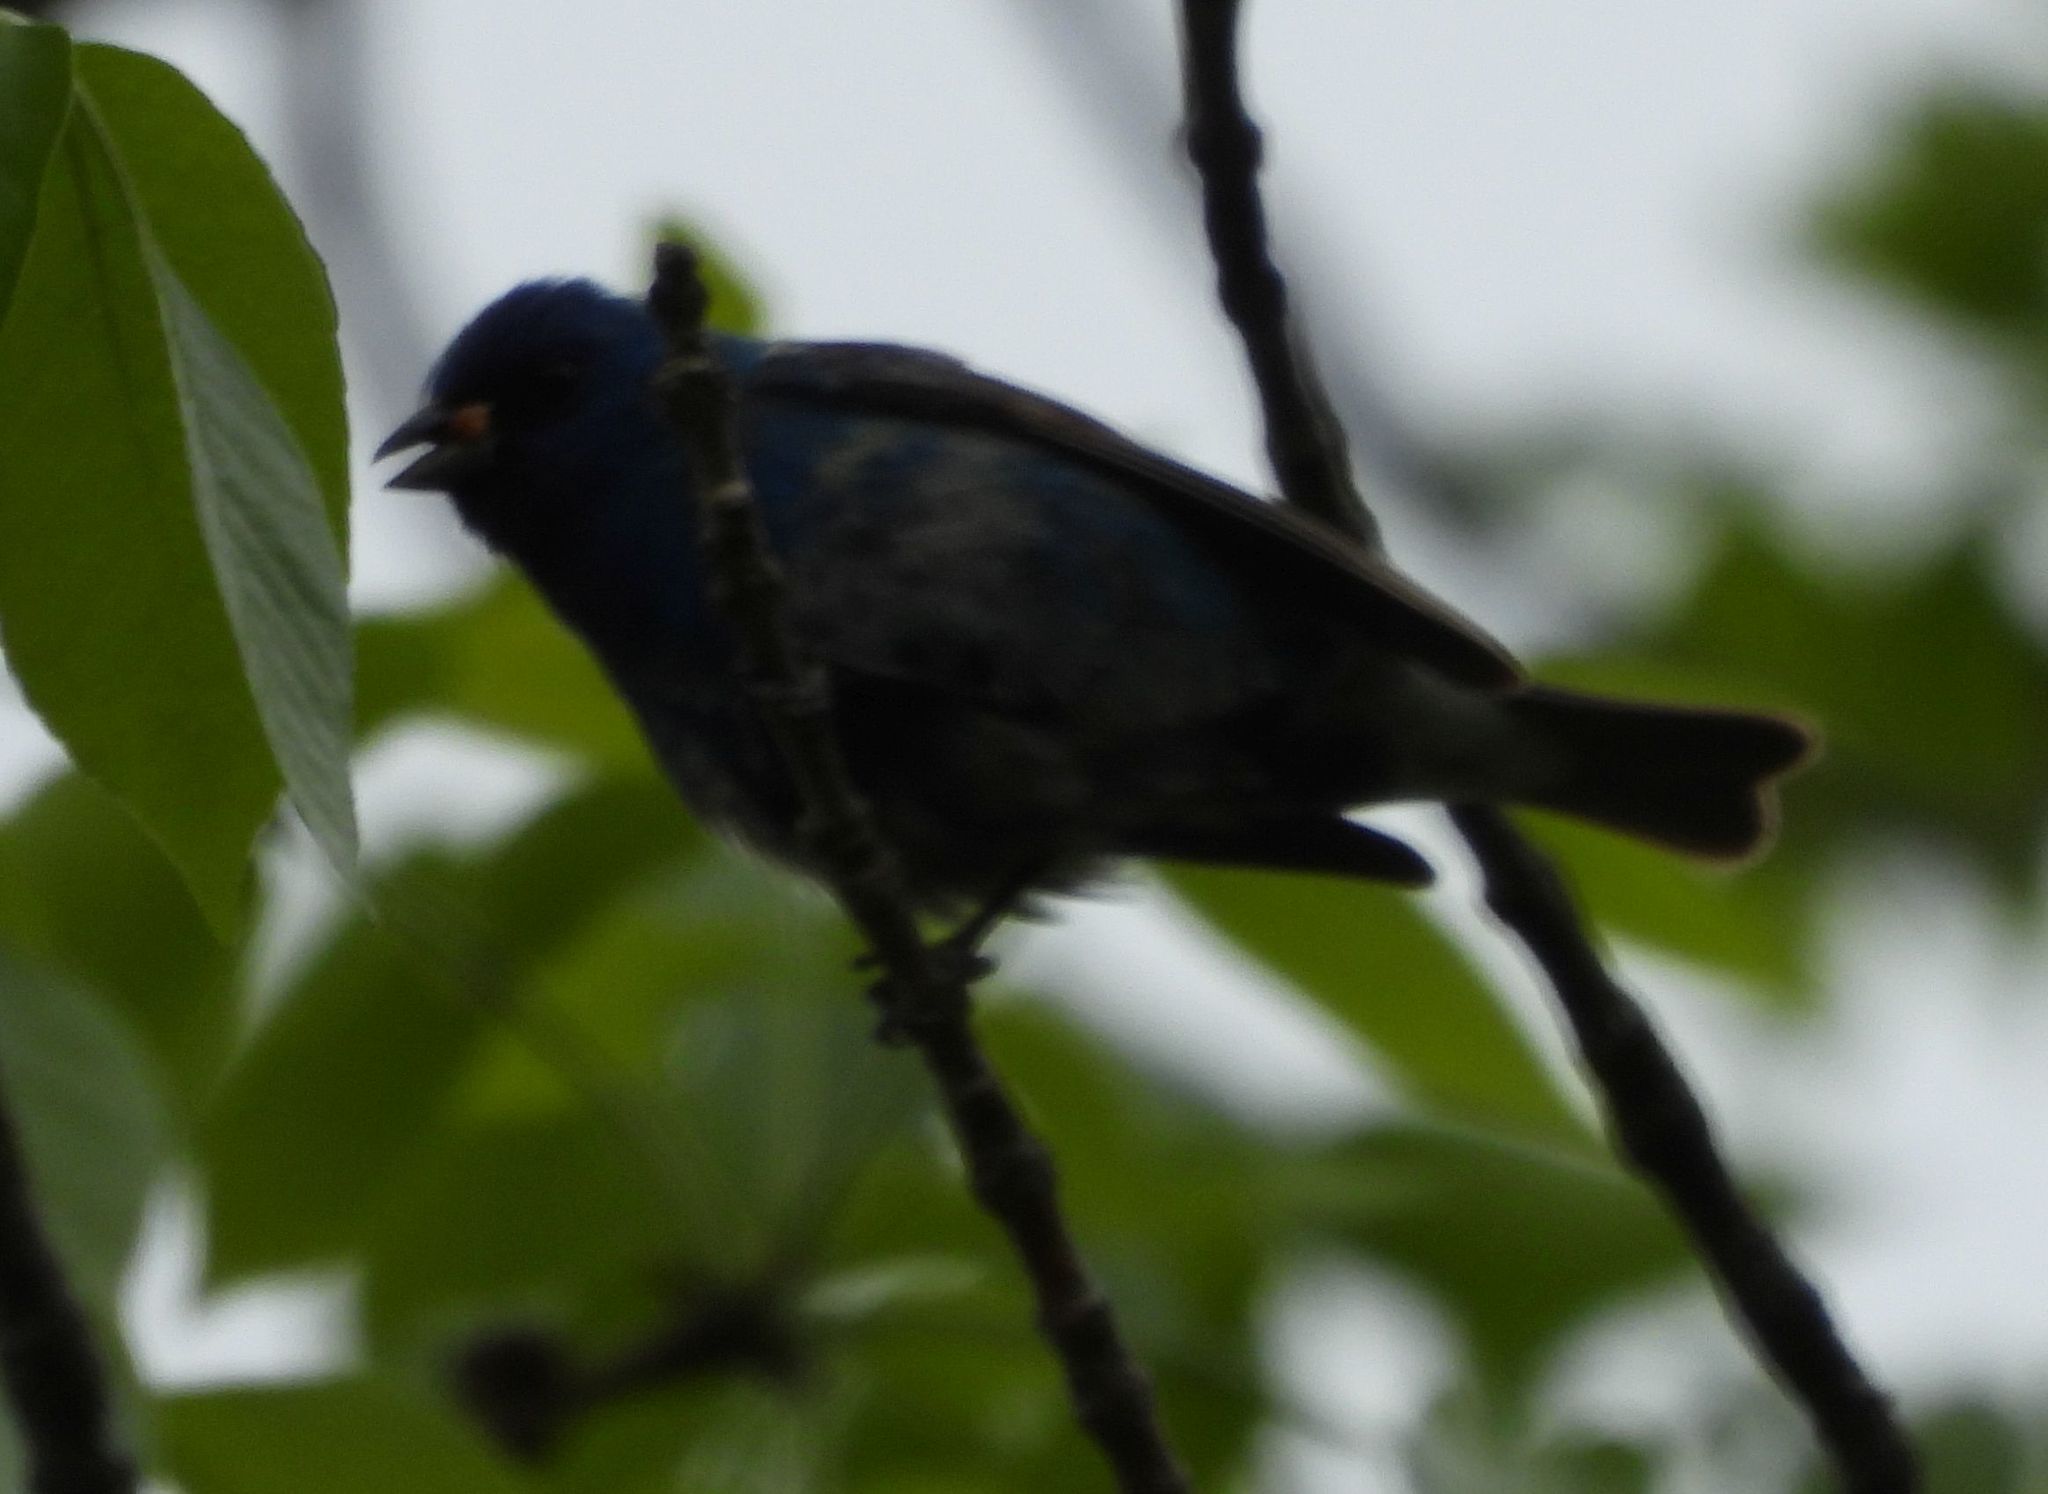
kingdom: Animalia
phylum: Chordata
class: Aves
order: Passeriformes
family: Cardinalidae
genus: Passerina
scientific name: Passerina cyanea
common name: Indigo bunting
